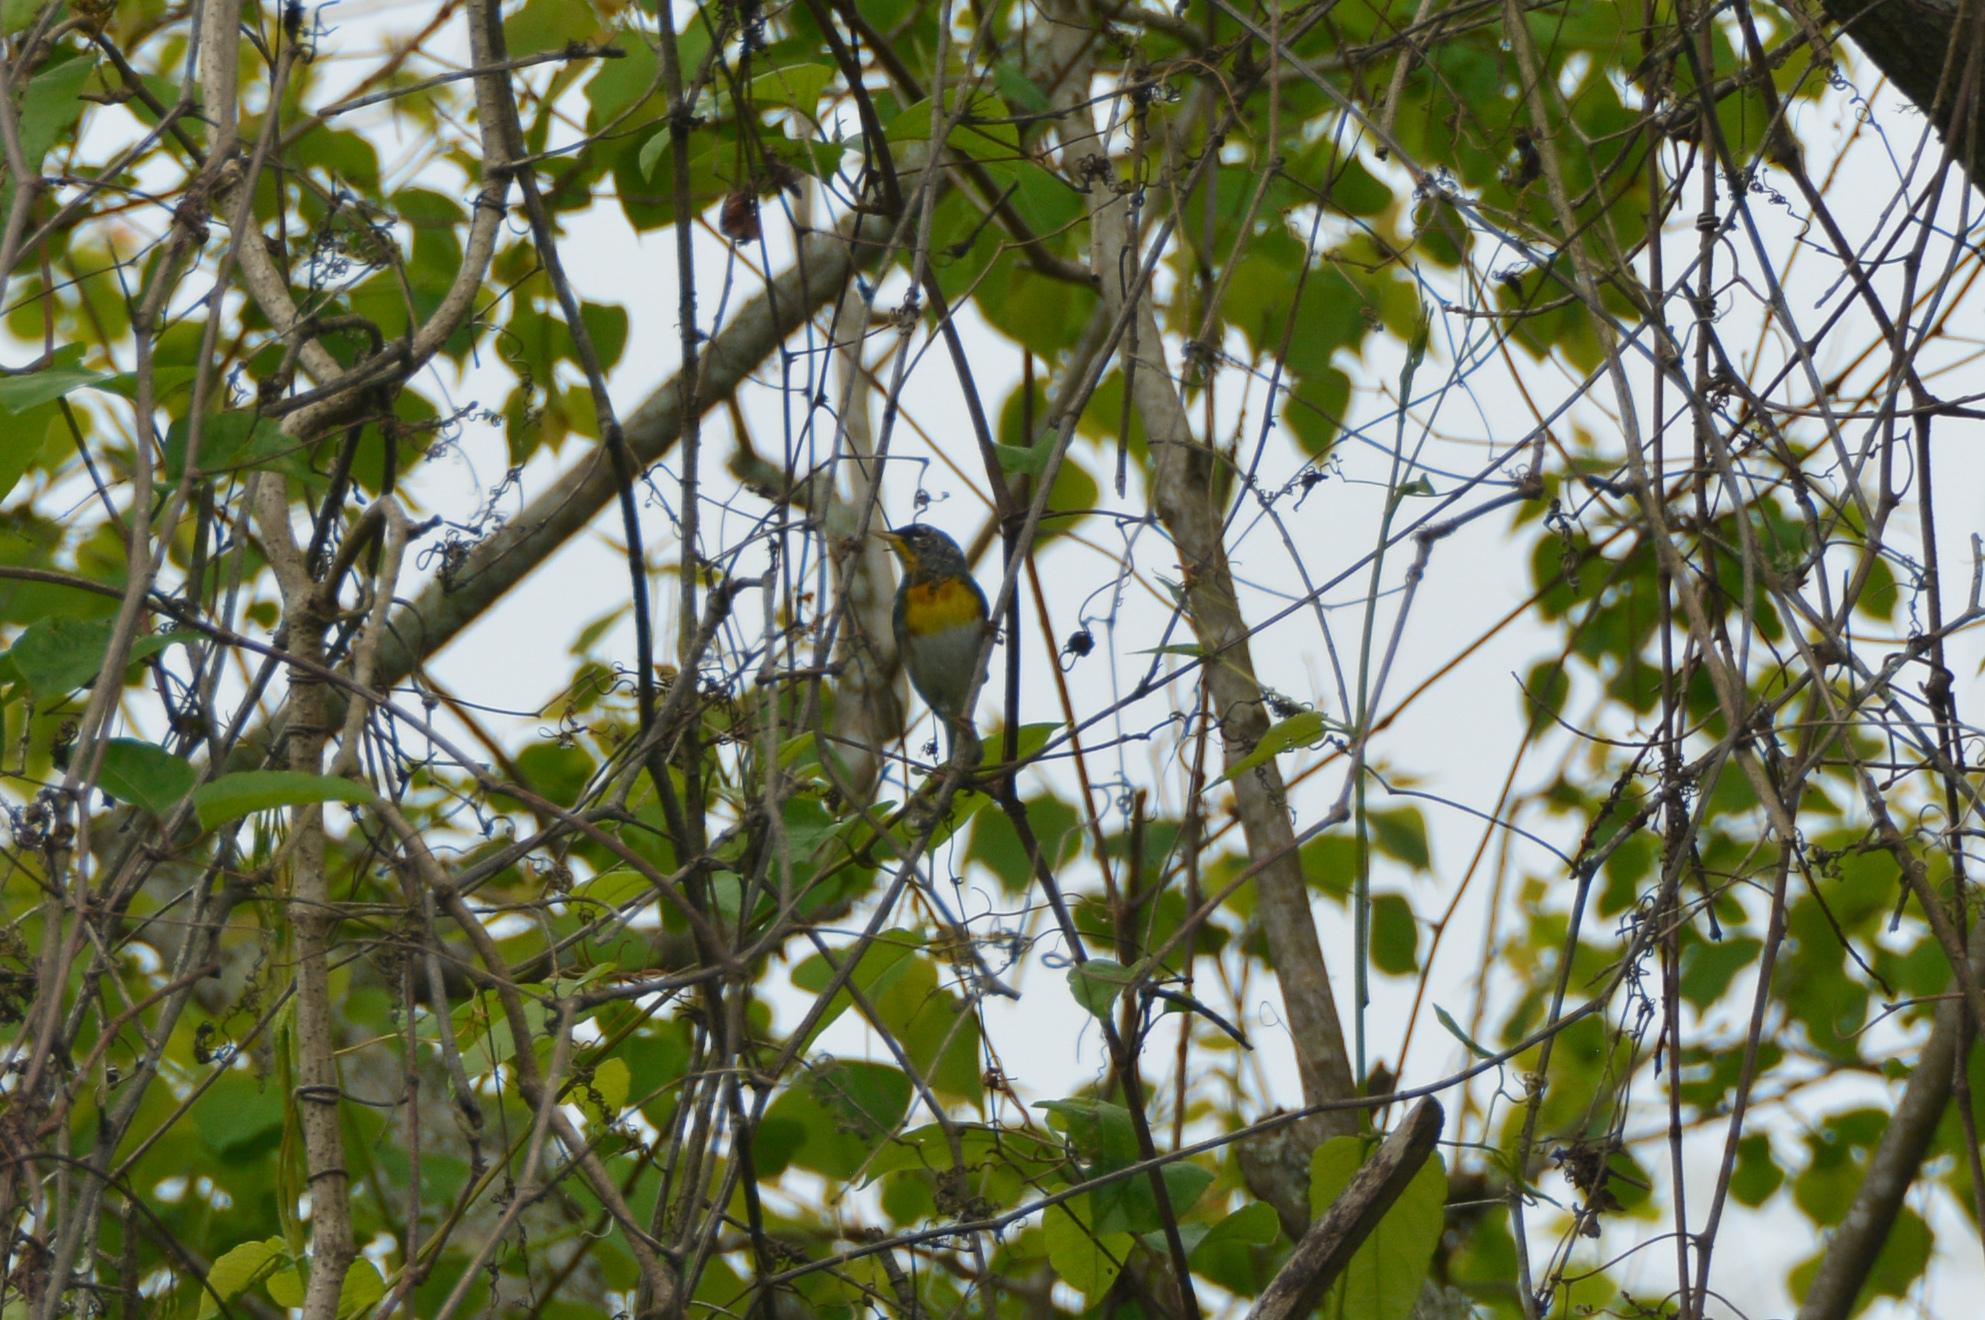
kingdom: Animalia
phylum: Chordata
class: Aves
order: Passeriformes
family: Parulidae
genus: Setophaga
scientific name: Setophaga americana
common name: Northern parula
